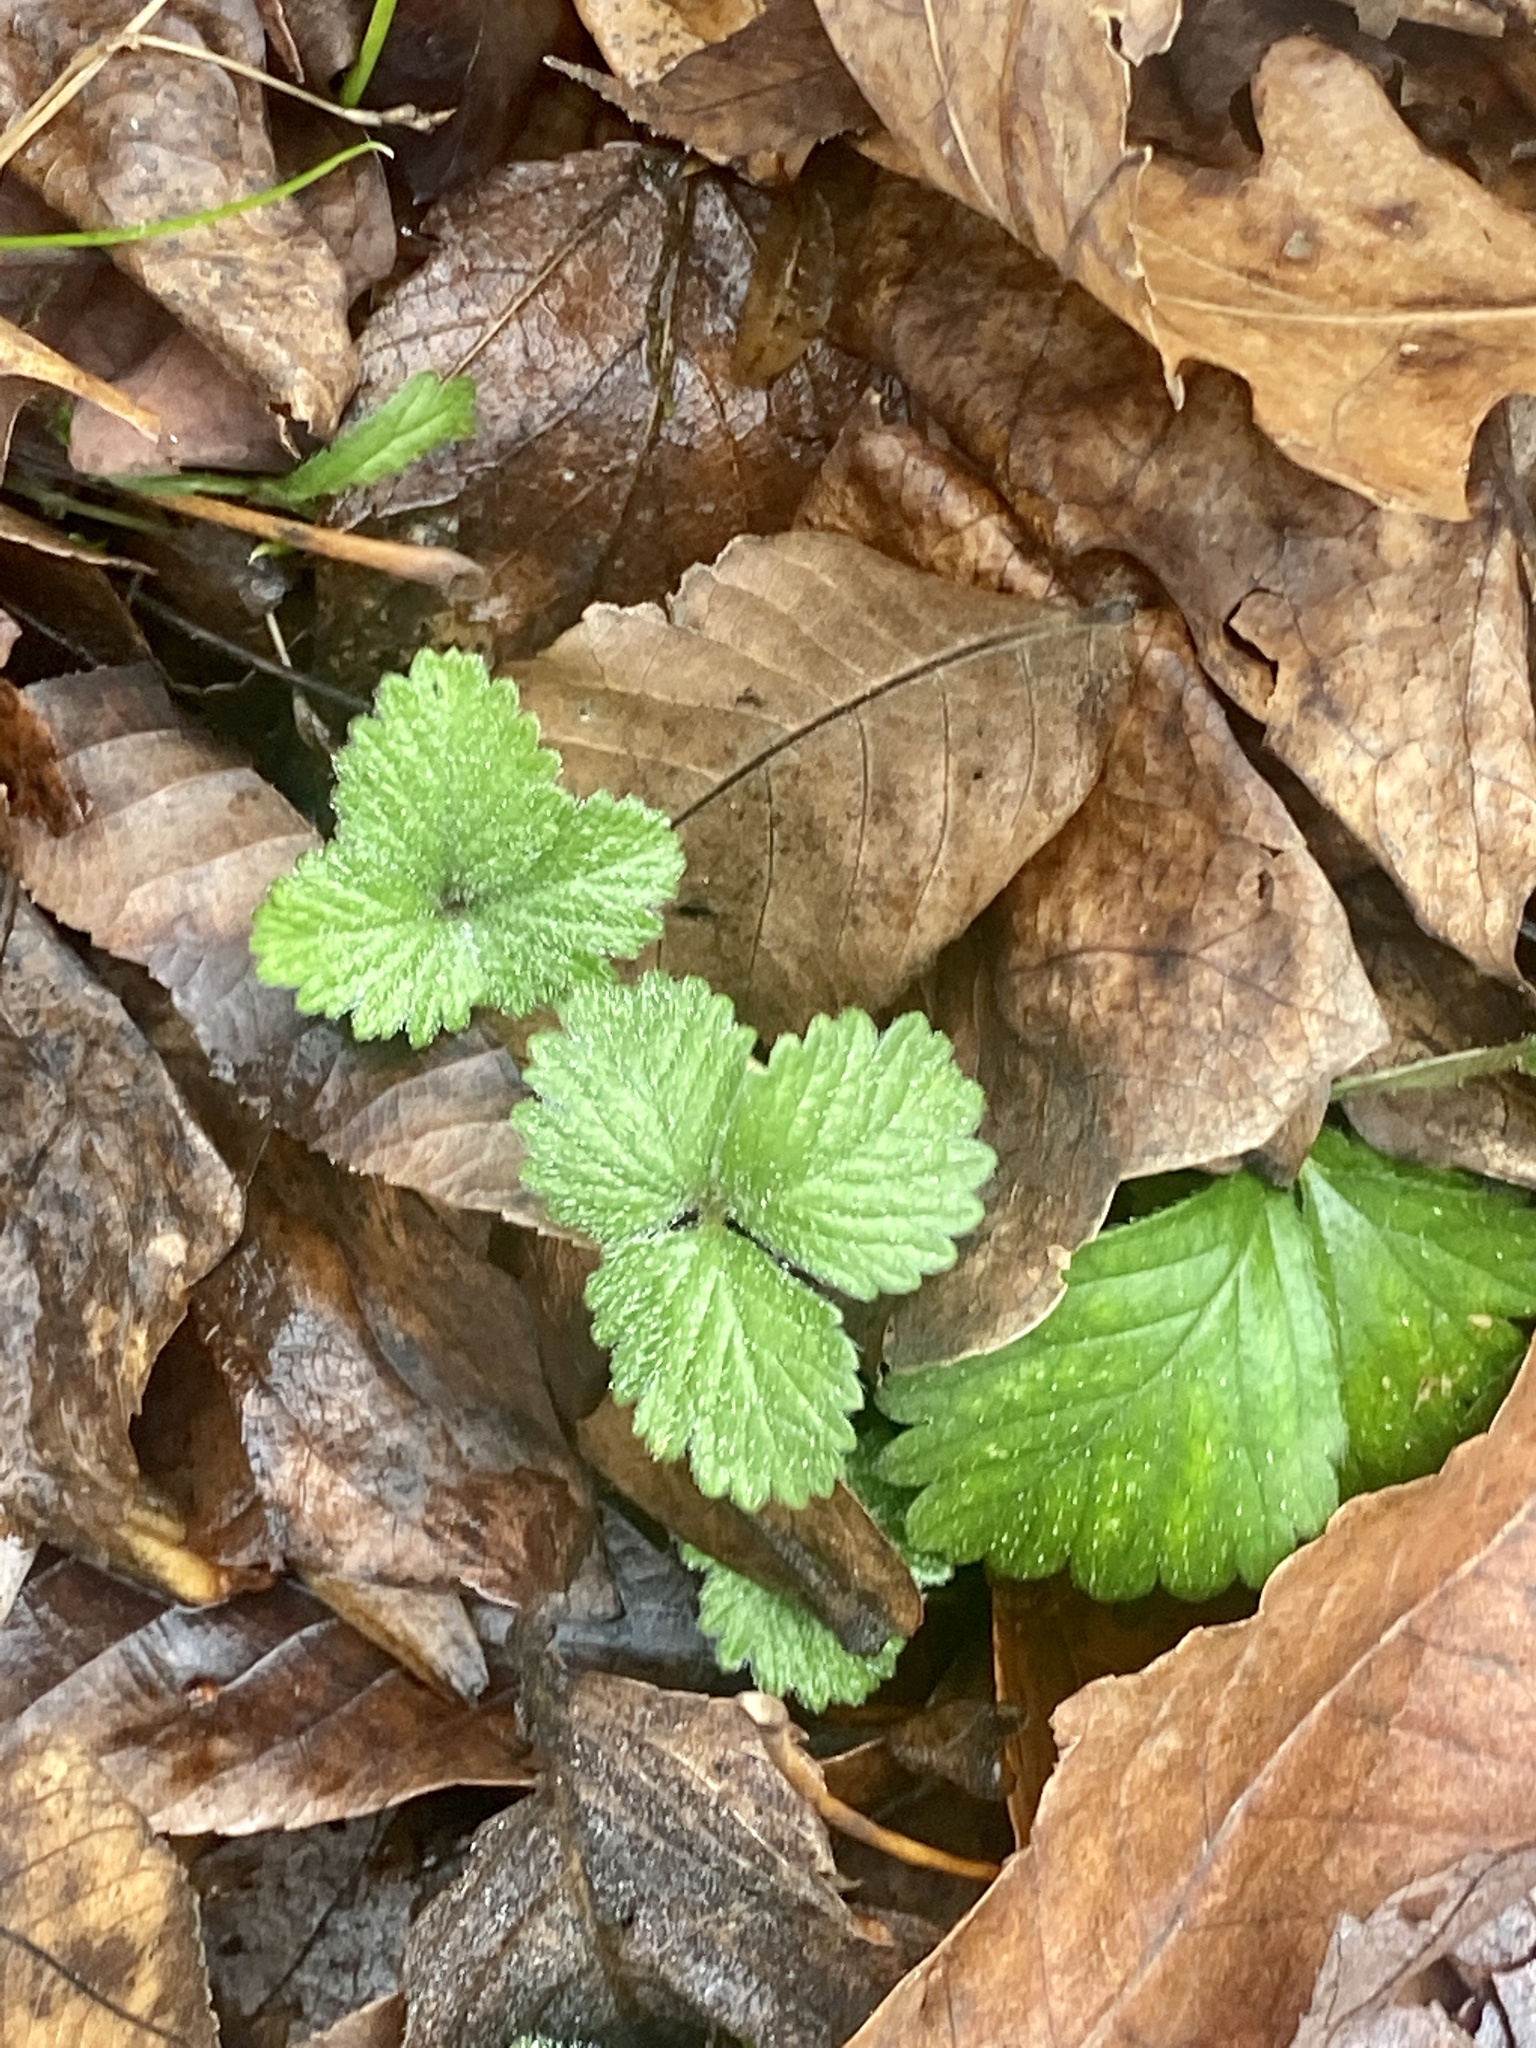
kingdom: Plantae
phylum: Tracheophyta
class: Magnoliopsida
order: Rosales
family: Rosaceae
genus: Potentilla
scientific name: Potentilla indica
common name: Yellow-flowered strawberry
